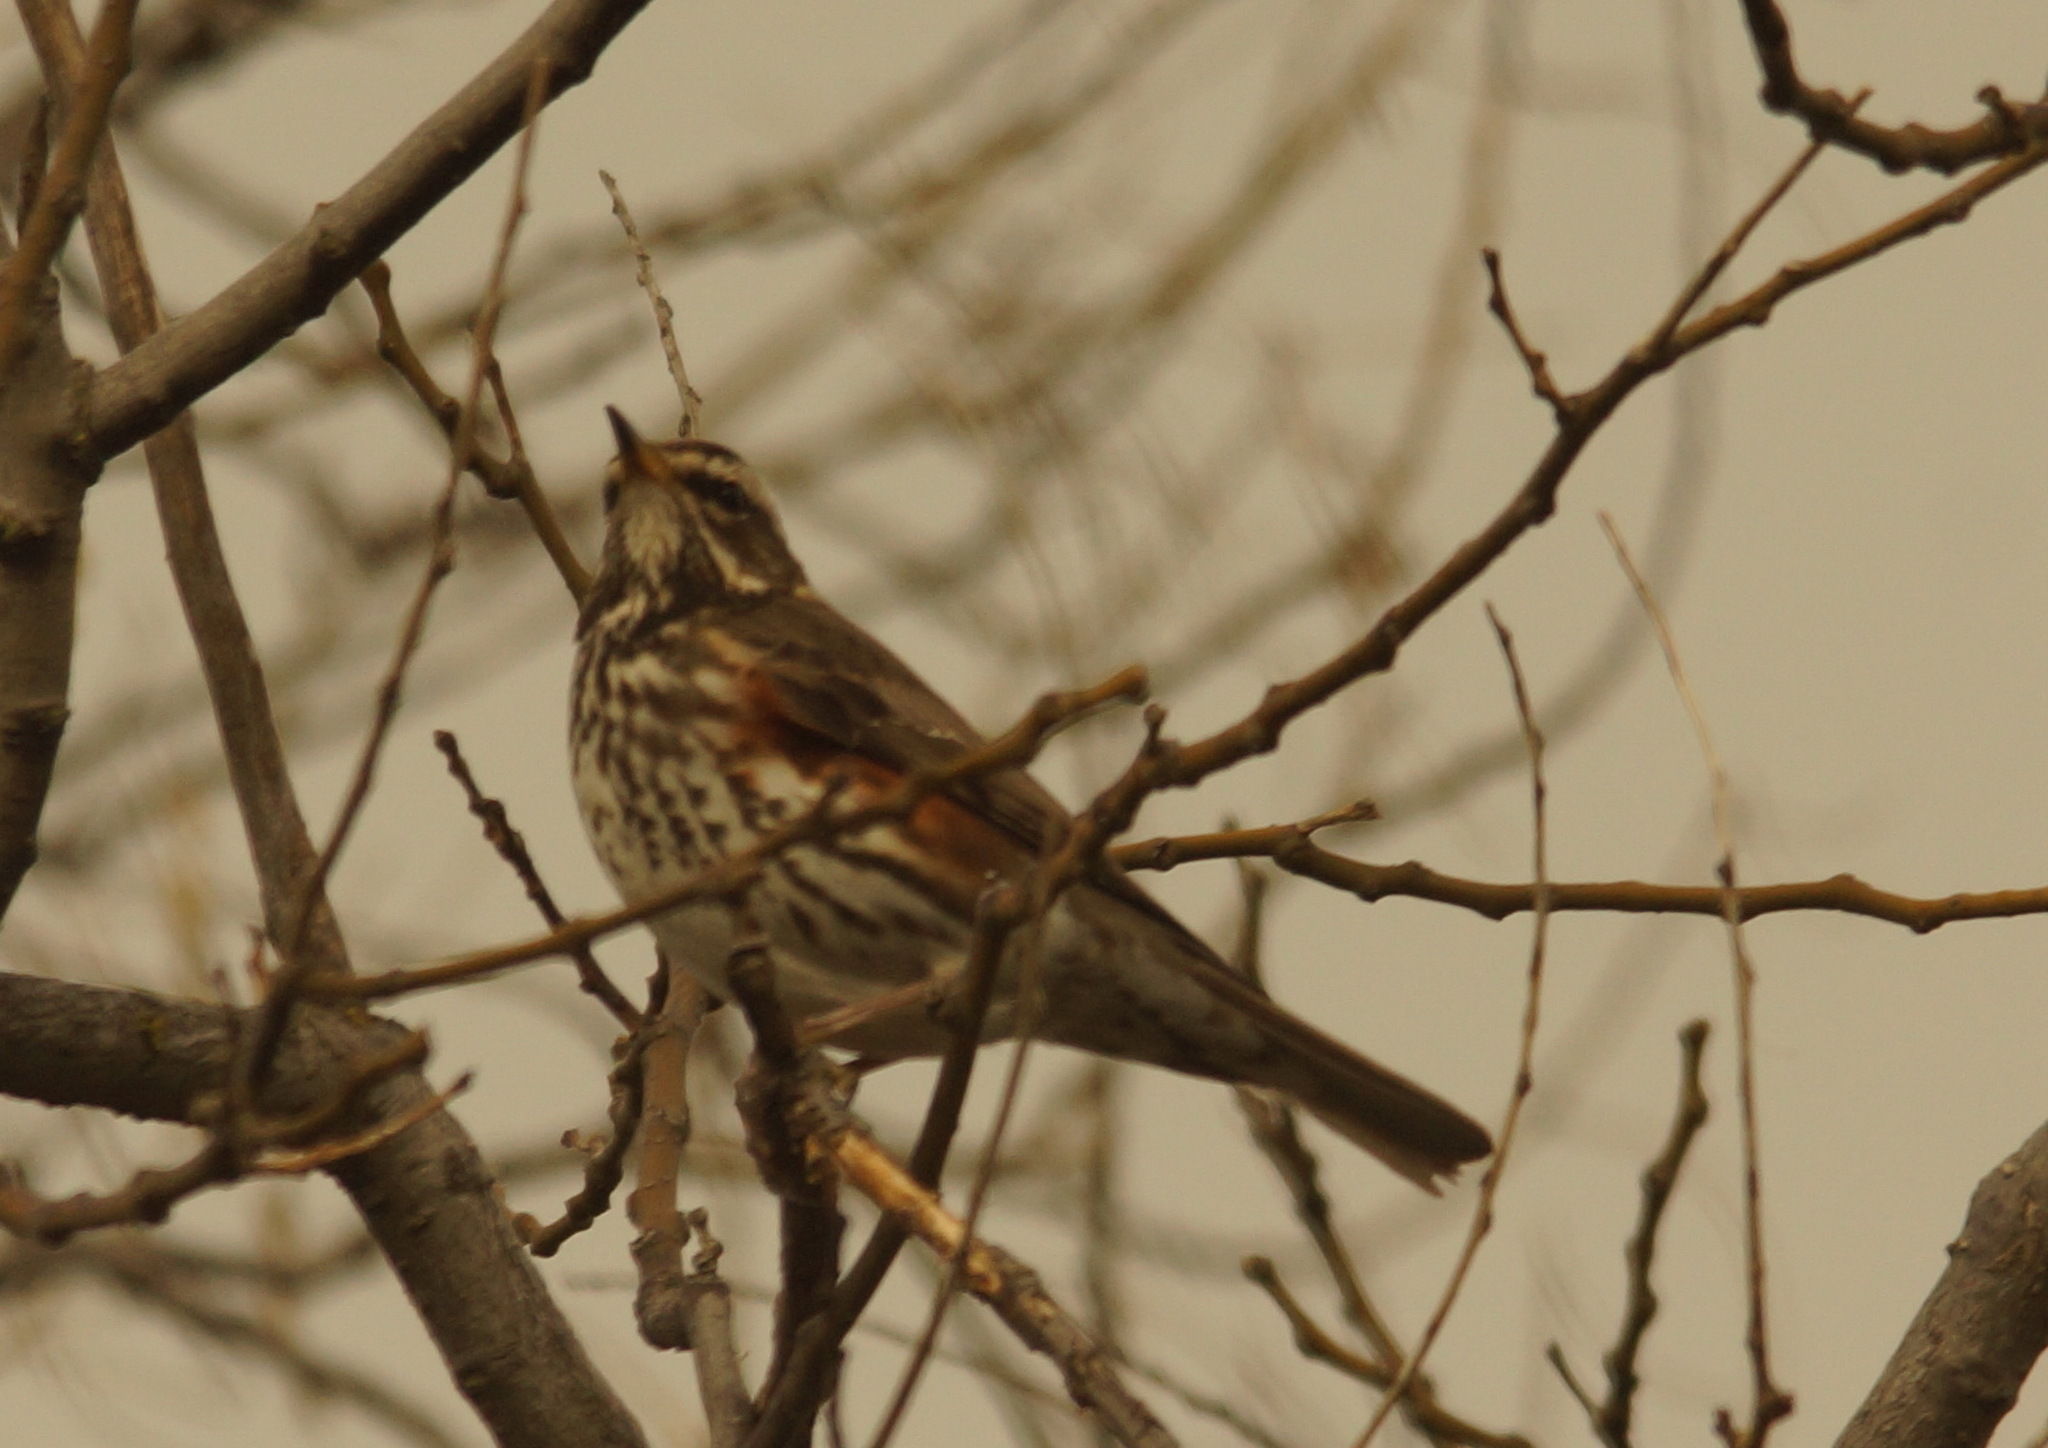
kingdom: Animalia
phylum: Chordata
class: Aves
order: Passeriformes
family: Turdidae
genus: Turdus
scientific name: Turdus iliacus
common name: Redwing
